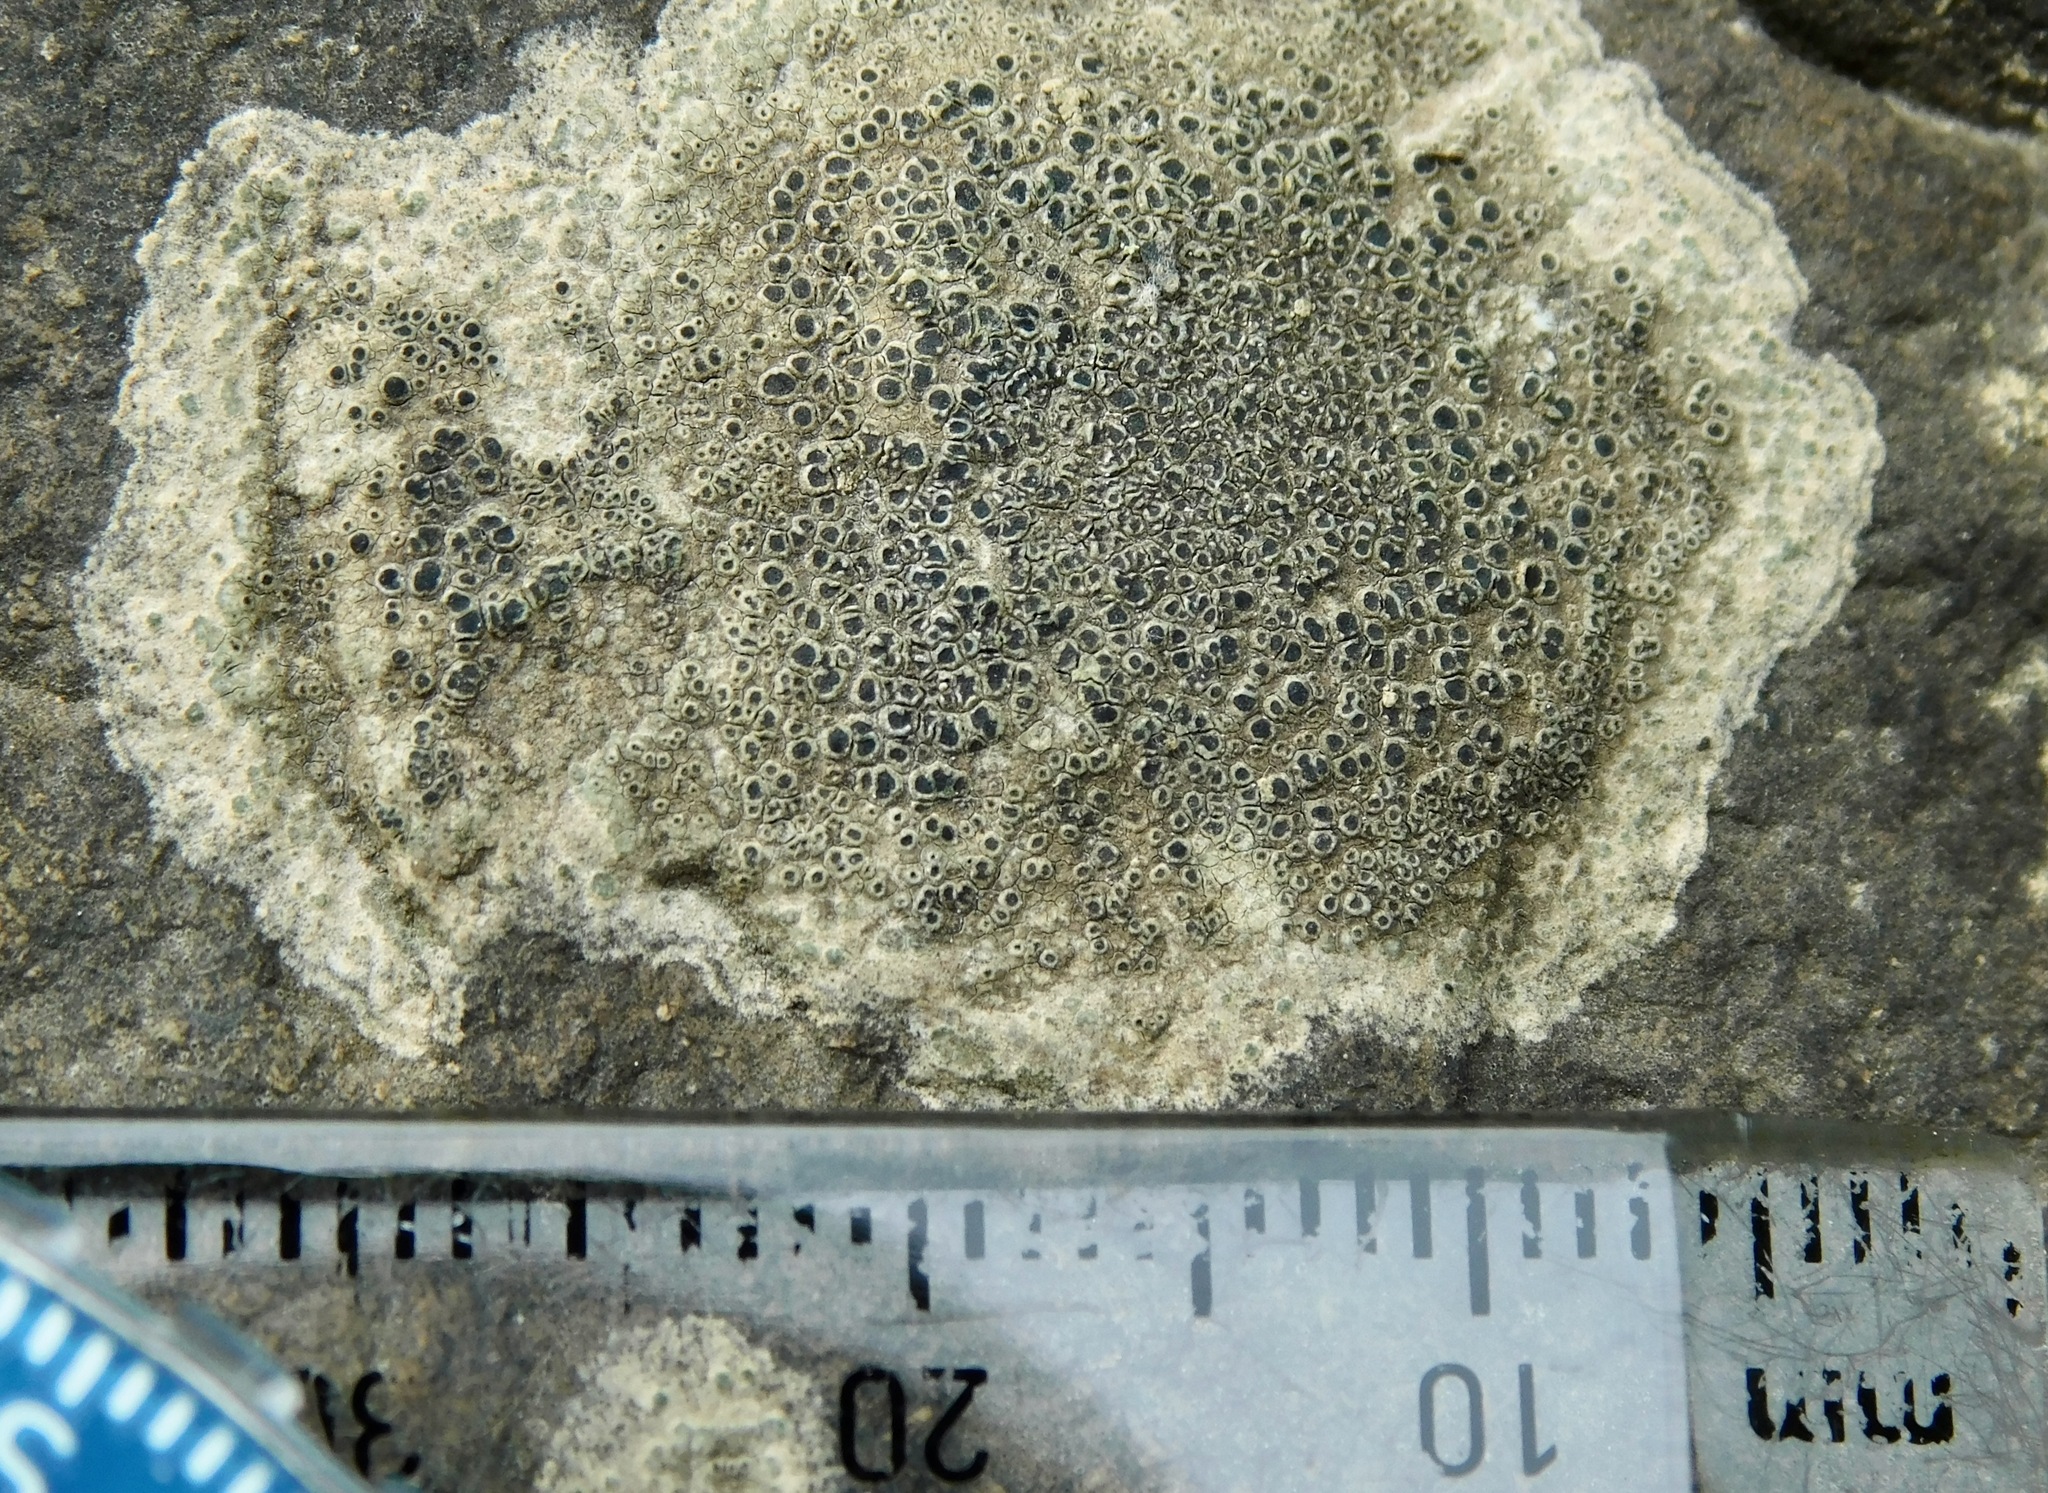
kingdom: Fungi
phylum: Ascomycota
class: Lecanoromycetes
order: Lecanorales
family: Lecanoraceae
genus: Lecanora
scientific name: Lecanora subimmergens
